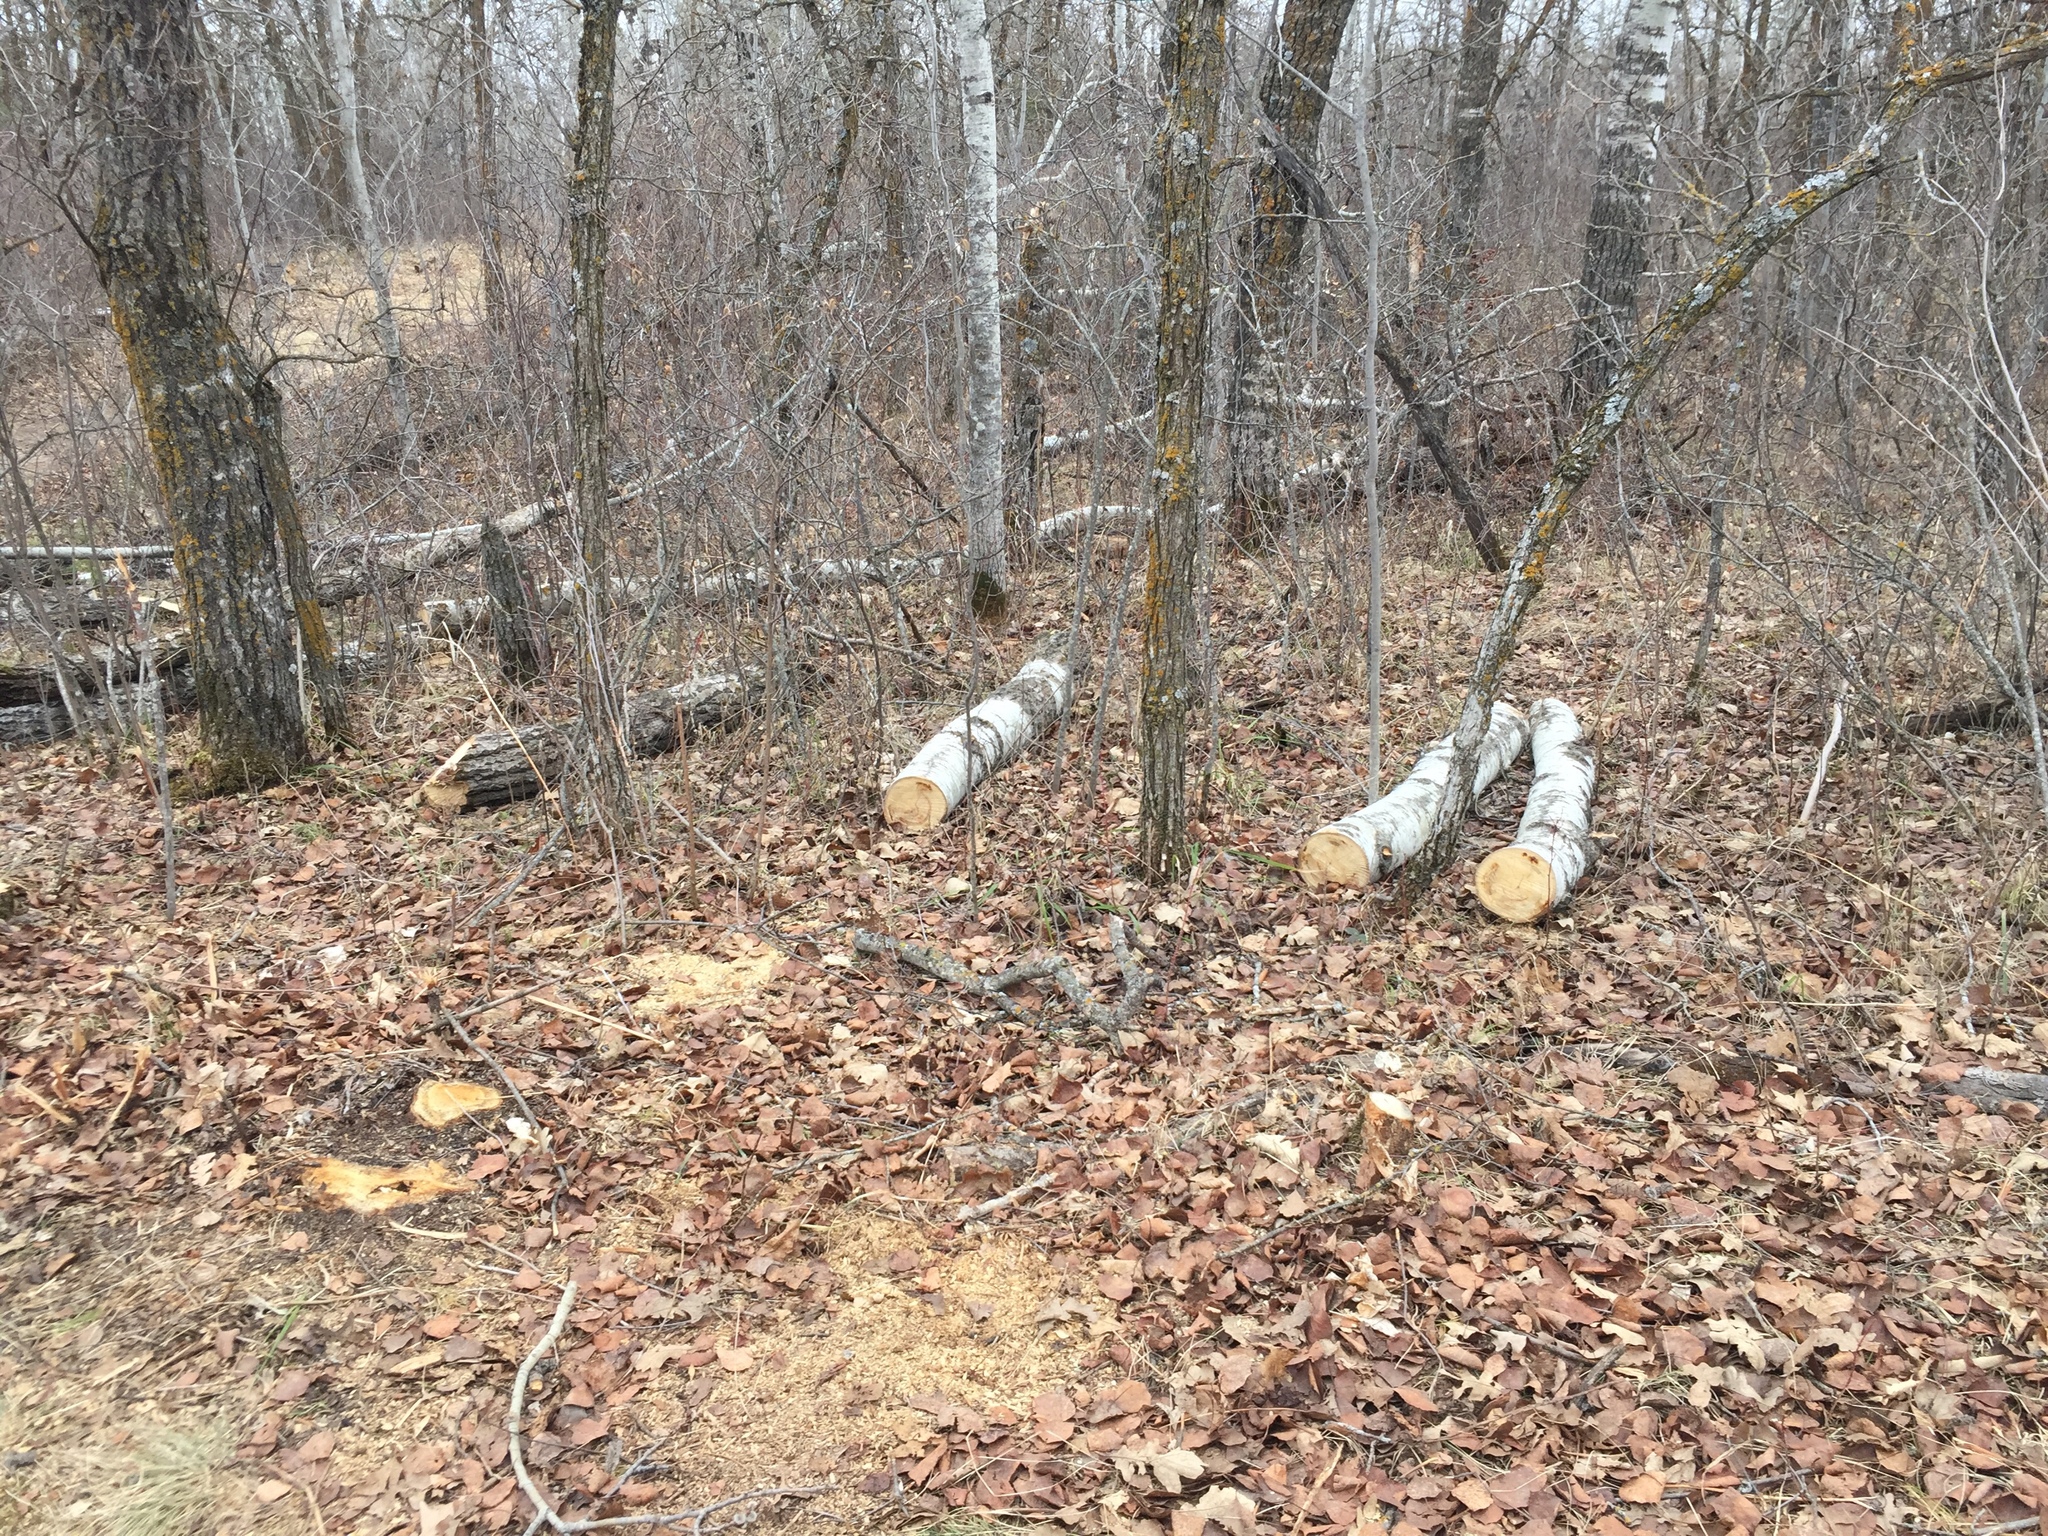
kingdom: Plantae
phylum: Tracheophyta
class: Magnoliopsida
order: Malpighiales
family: Salicaceae
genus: Populus
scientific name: Populus tremuloides
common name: Quaking aspen
